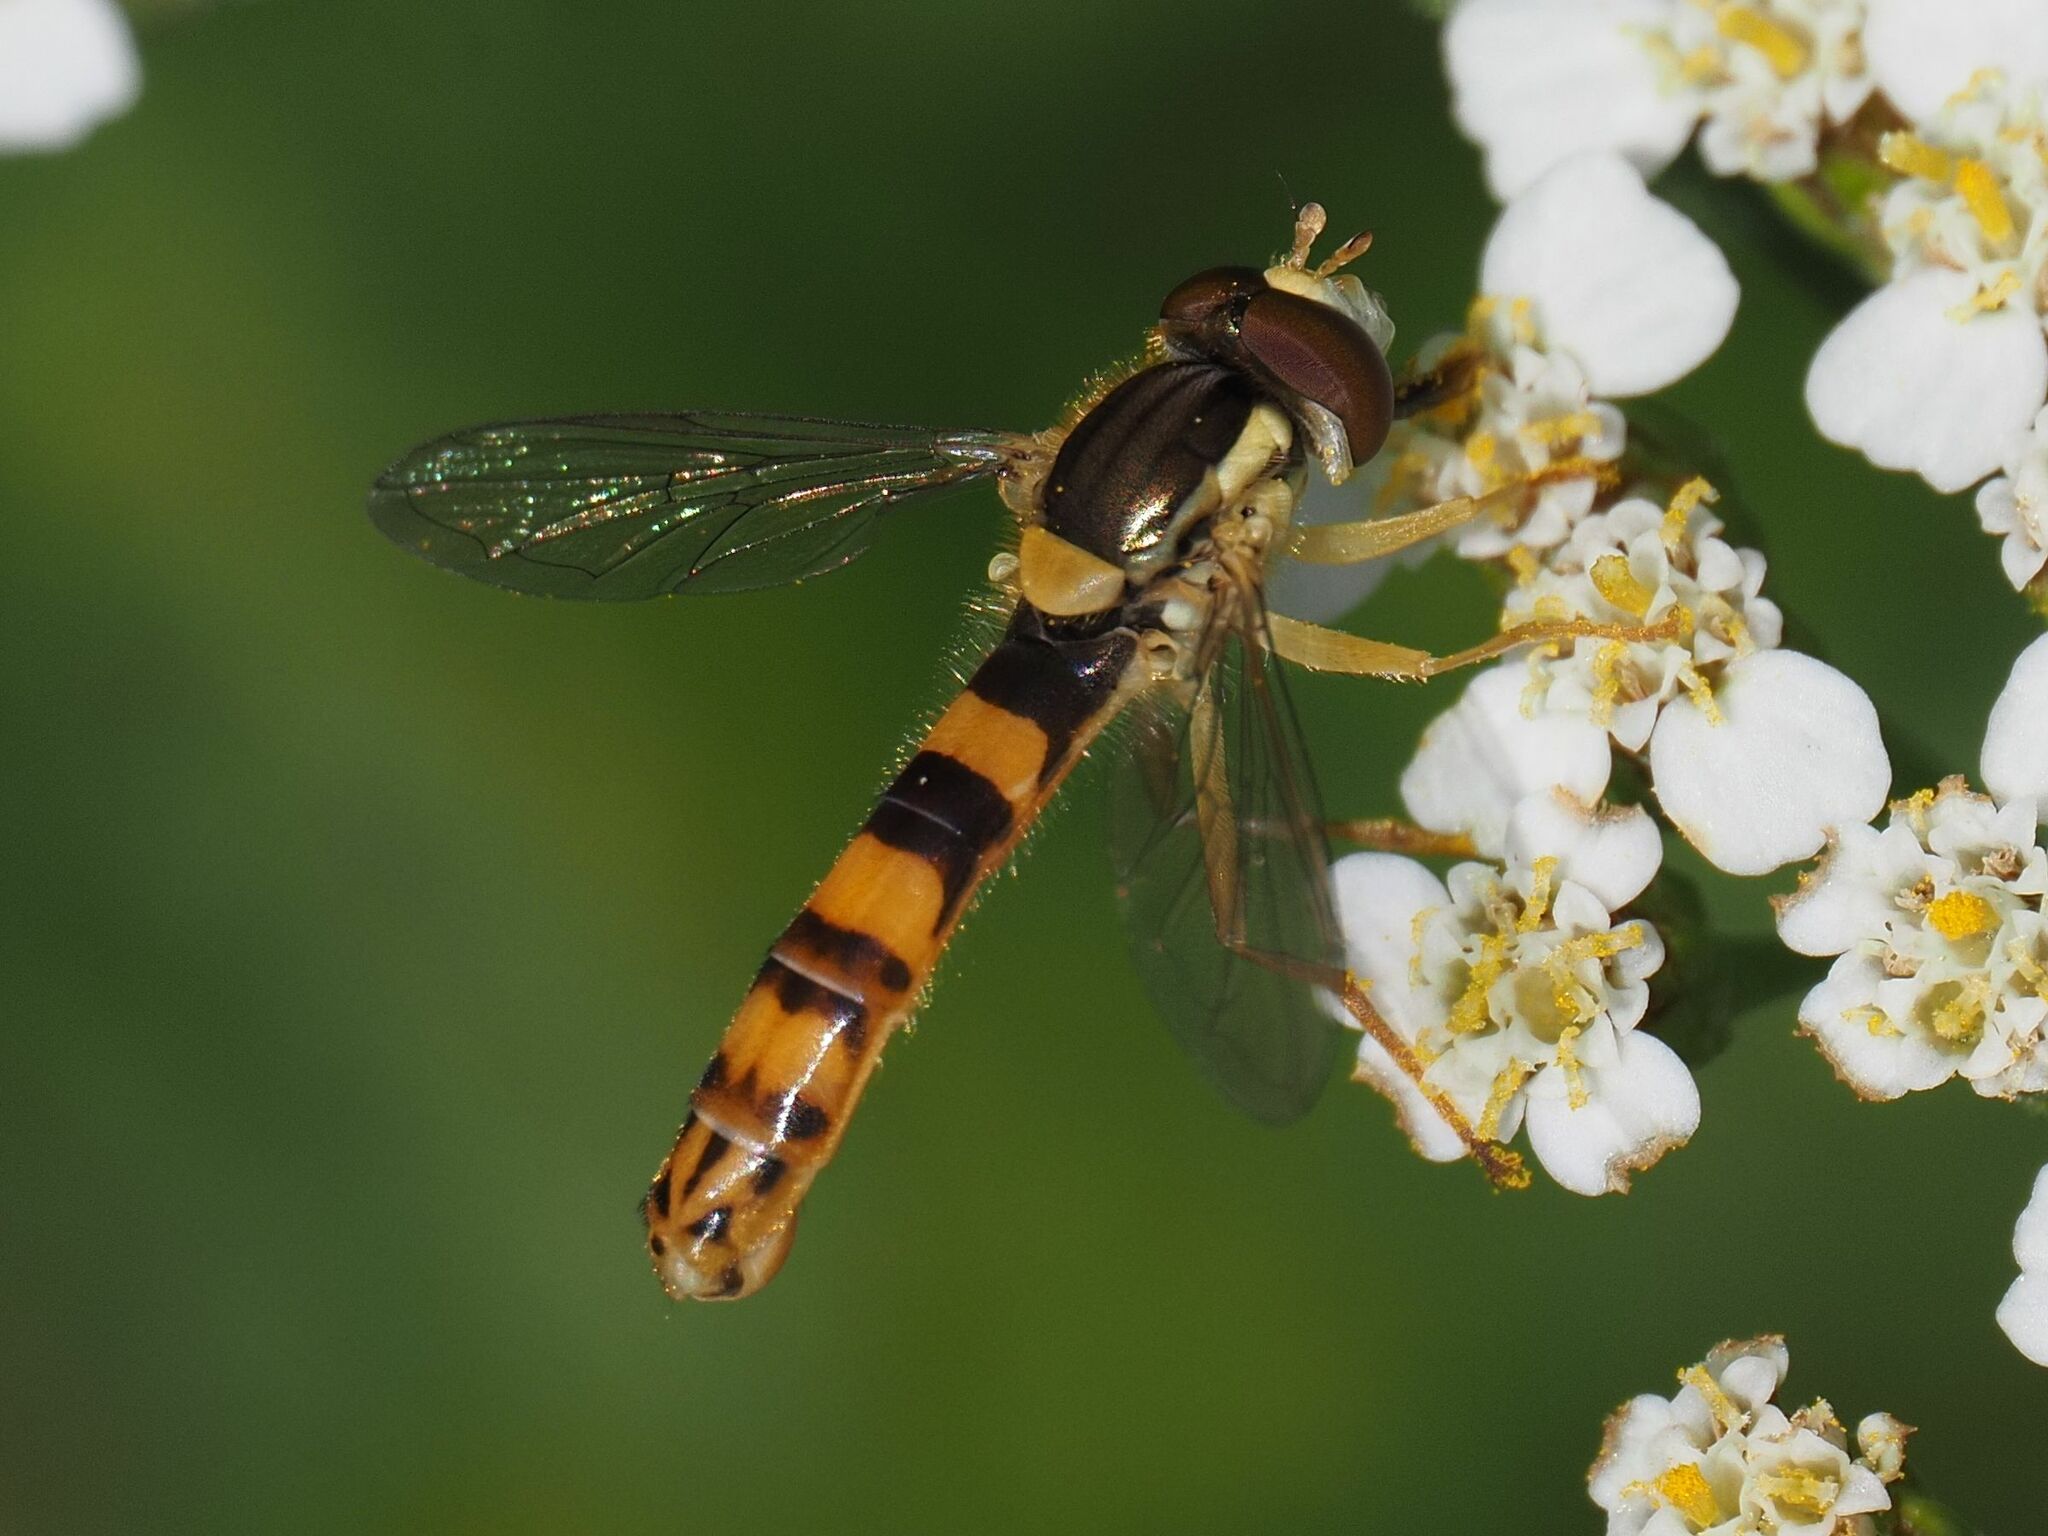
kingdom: Animalia
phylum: Arthropoda
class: Insecta
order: Diptera
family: Syrphidae
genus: Sphaerophoria
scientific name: Sphaerophoria scripta
